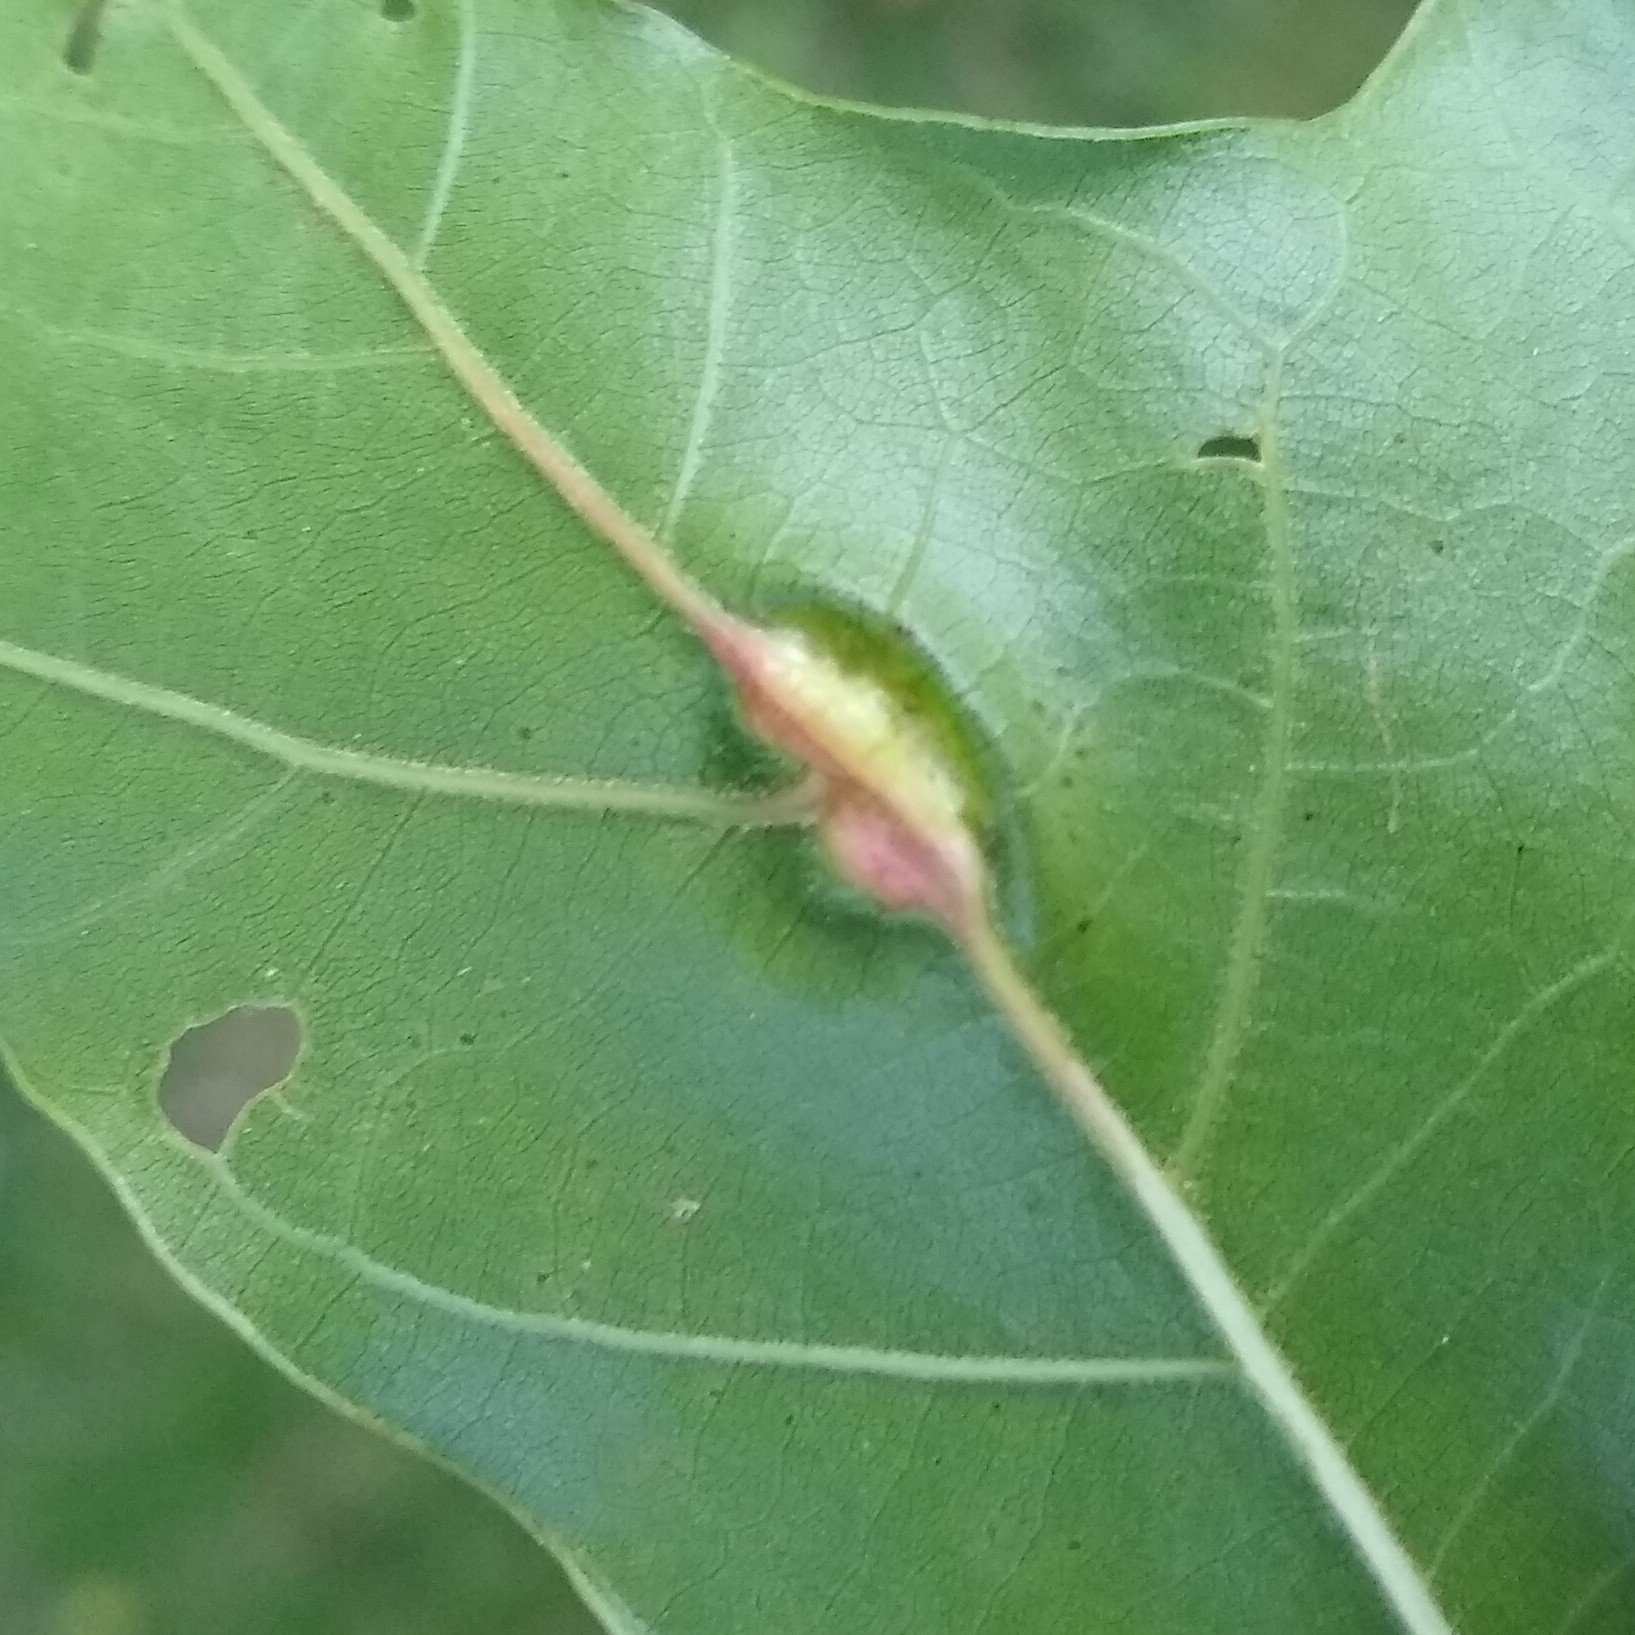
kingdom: Animalia
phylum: Arthropoda
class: Insecta
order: Diptera
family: Cecidomyiidae
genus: Polystepha
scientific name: Polystepha pilulae
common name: Oak leaf gall midge
